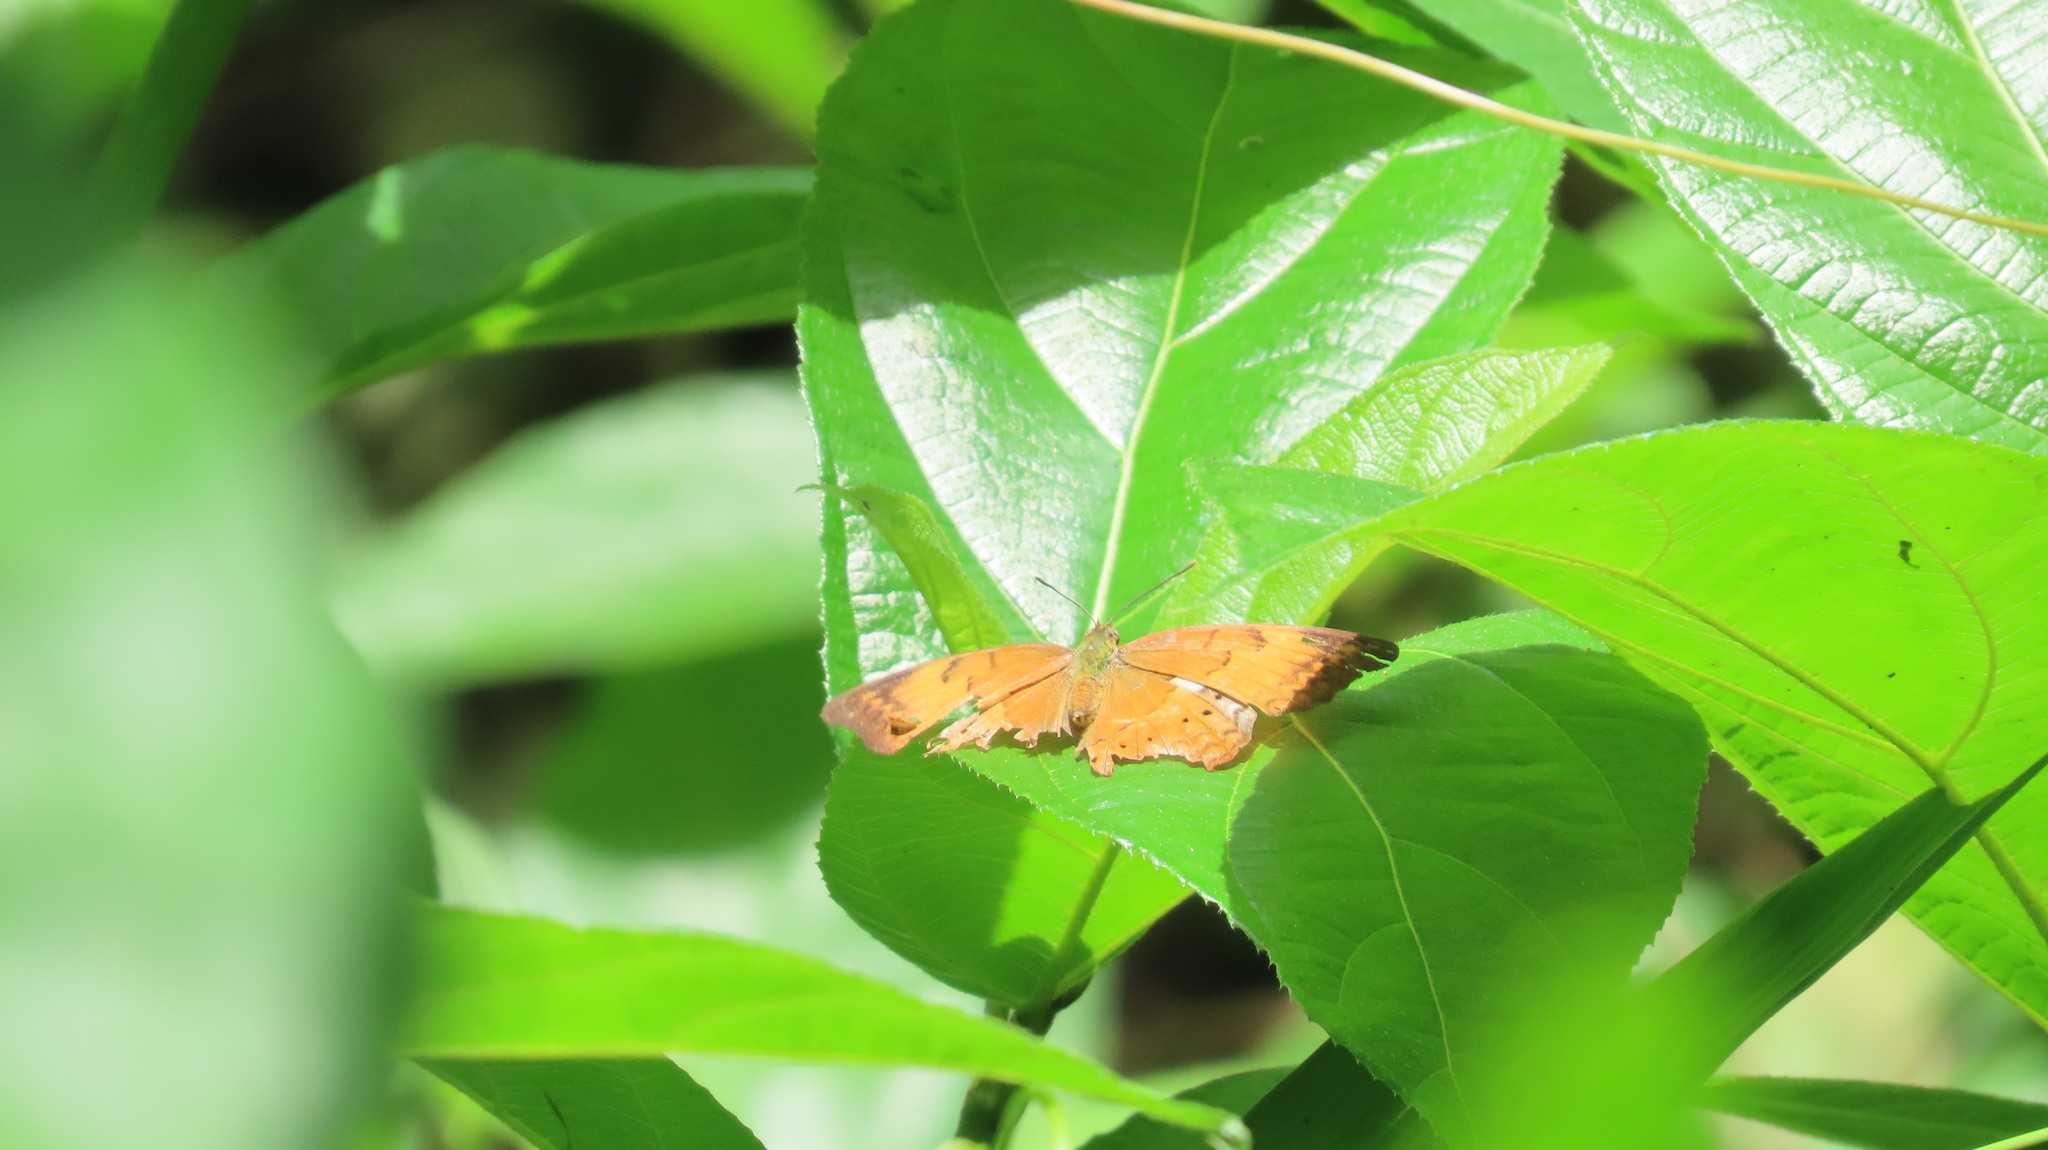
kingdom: Animalia
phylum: Arthropoda
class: Insecta
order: Lepidoptera
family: Nymphalidae
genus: Cirrochroa
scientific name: Cirrochroa thais
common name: Tamil yeoman
